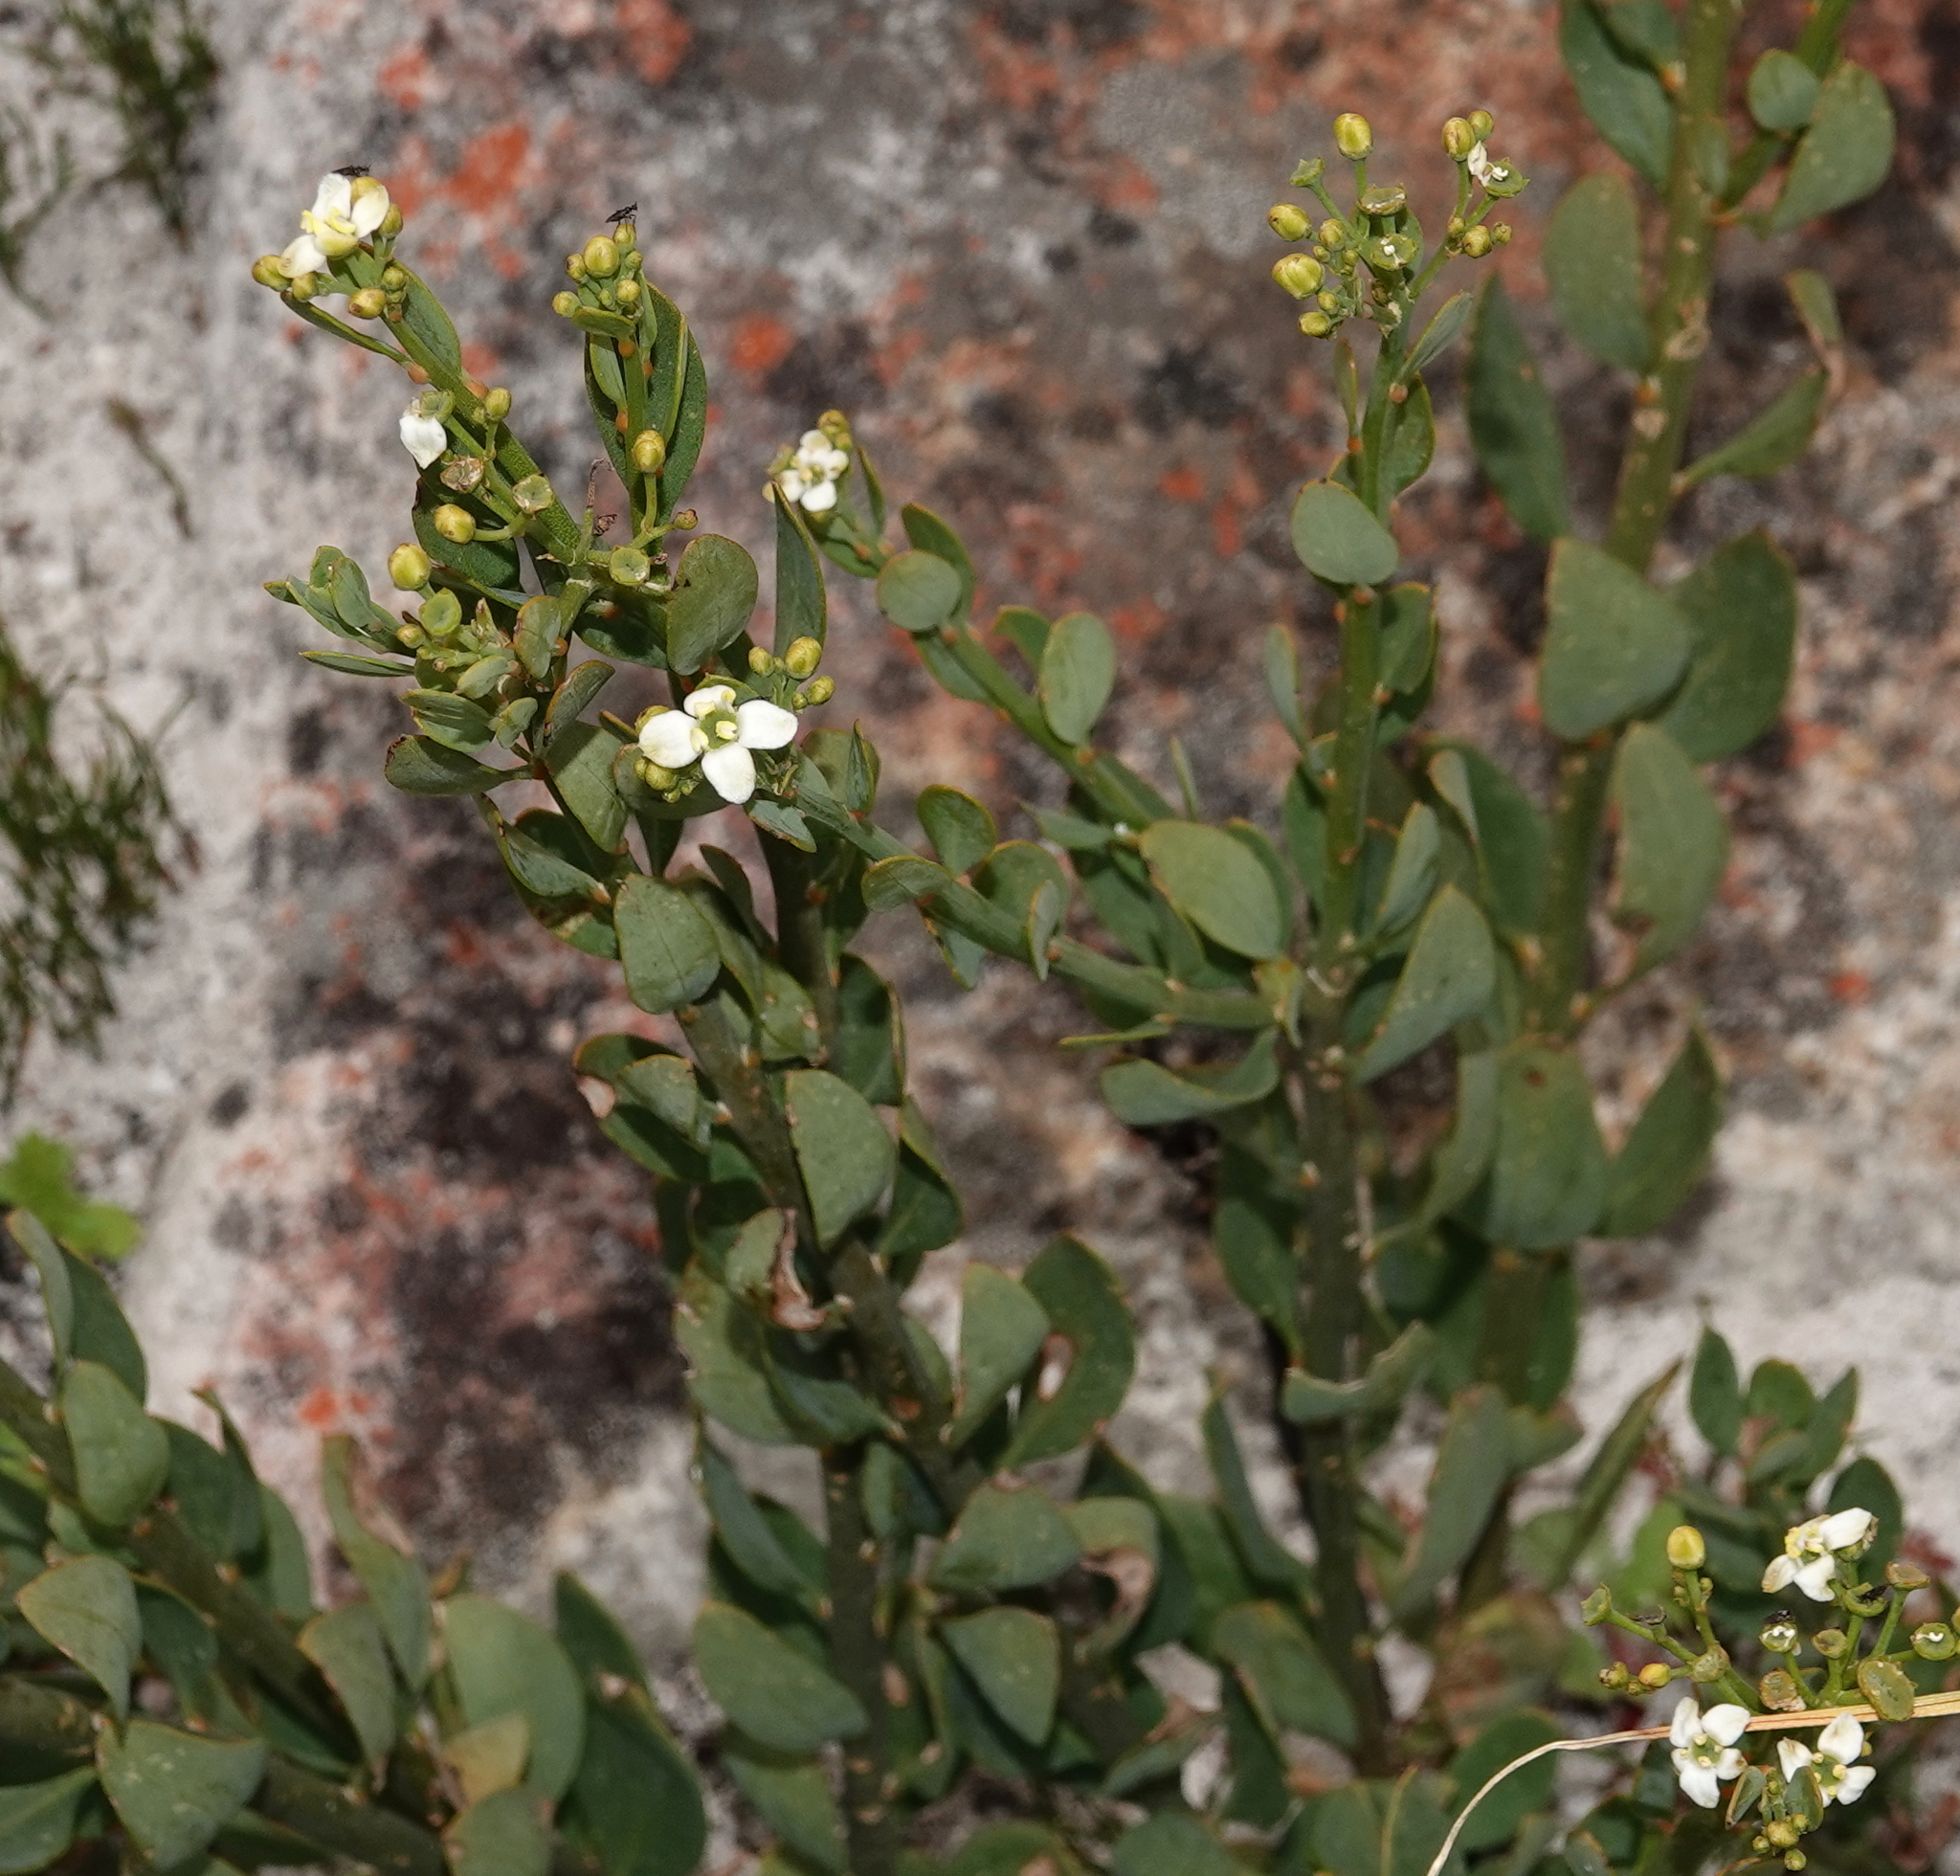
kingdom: Plantae
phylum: Tracheophyta
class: Magnoliopsida
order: Solanales
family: Montiniaceae
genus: Montinia
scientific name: Montinia caryophyllacea
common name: Wild clove-bush
